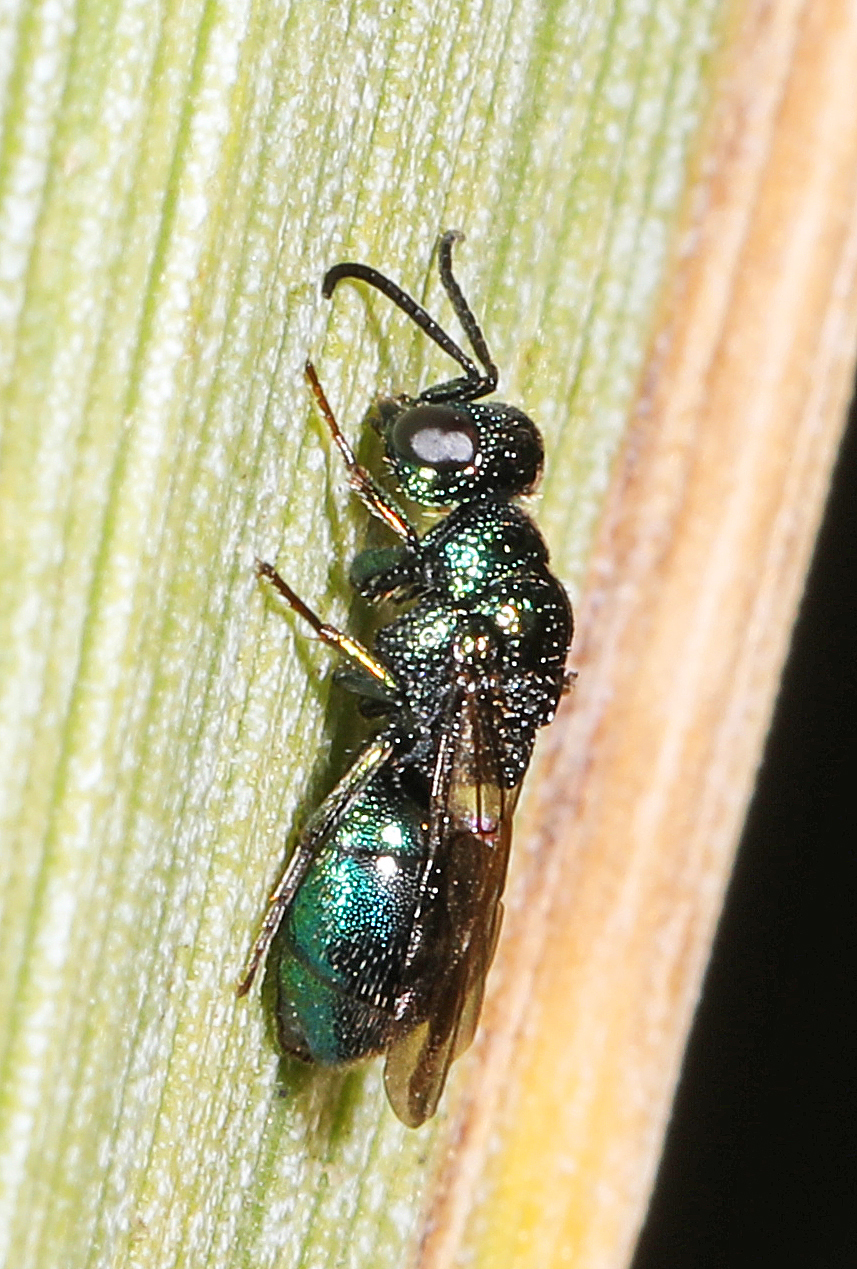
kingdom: Animalia
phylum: Arthropoda
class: Insecta
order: Hymenoptera
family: Chrysididae
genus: Philoctetes
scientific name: Philoctetes
